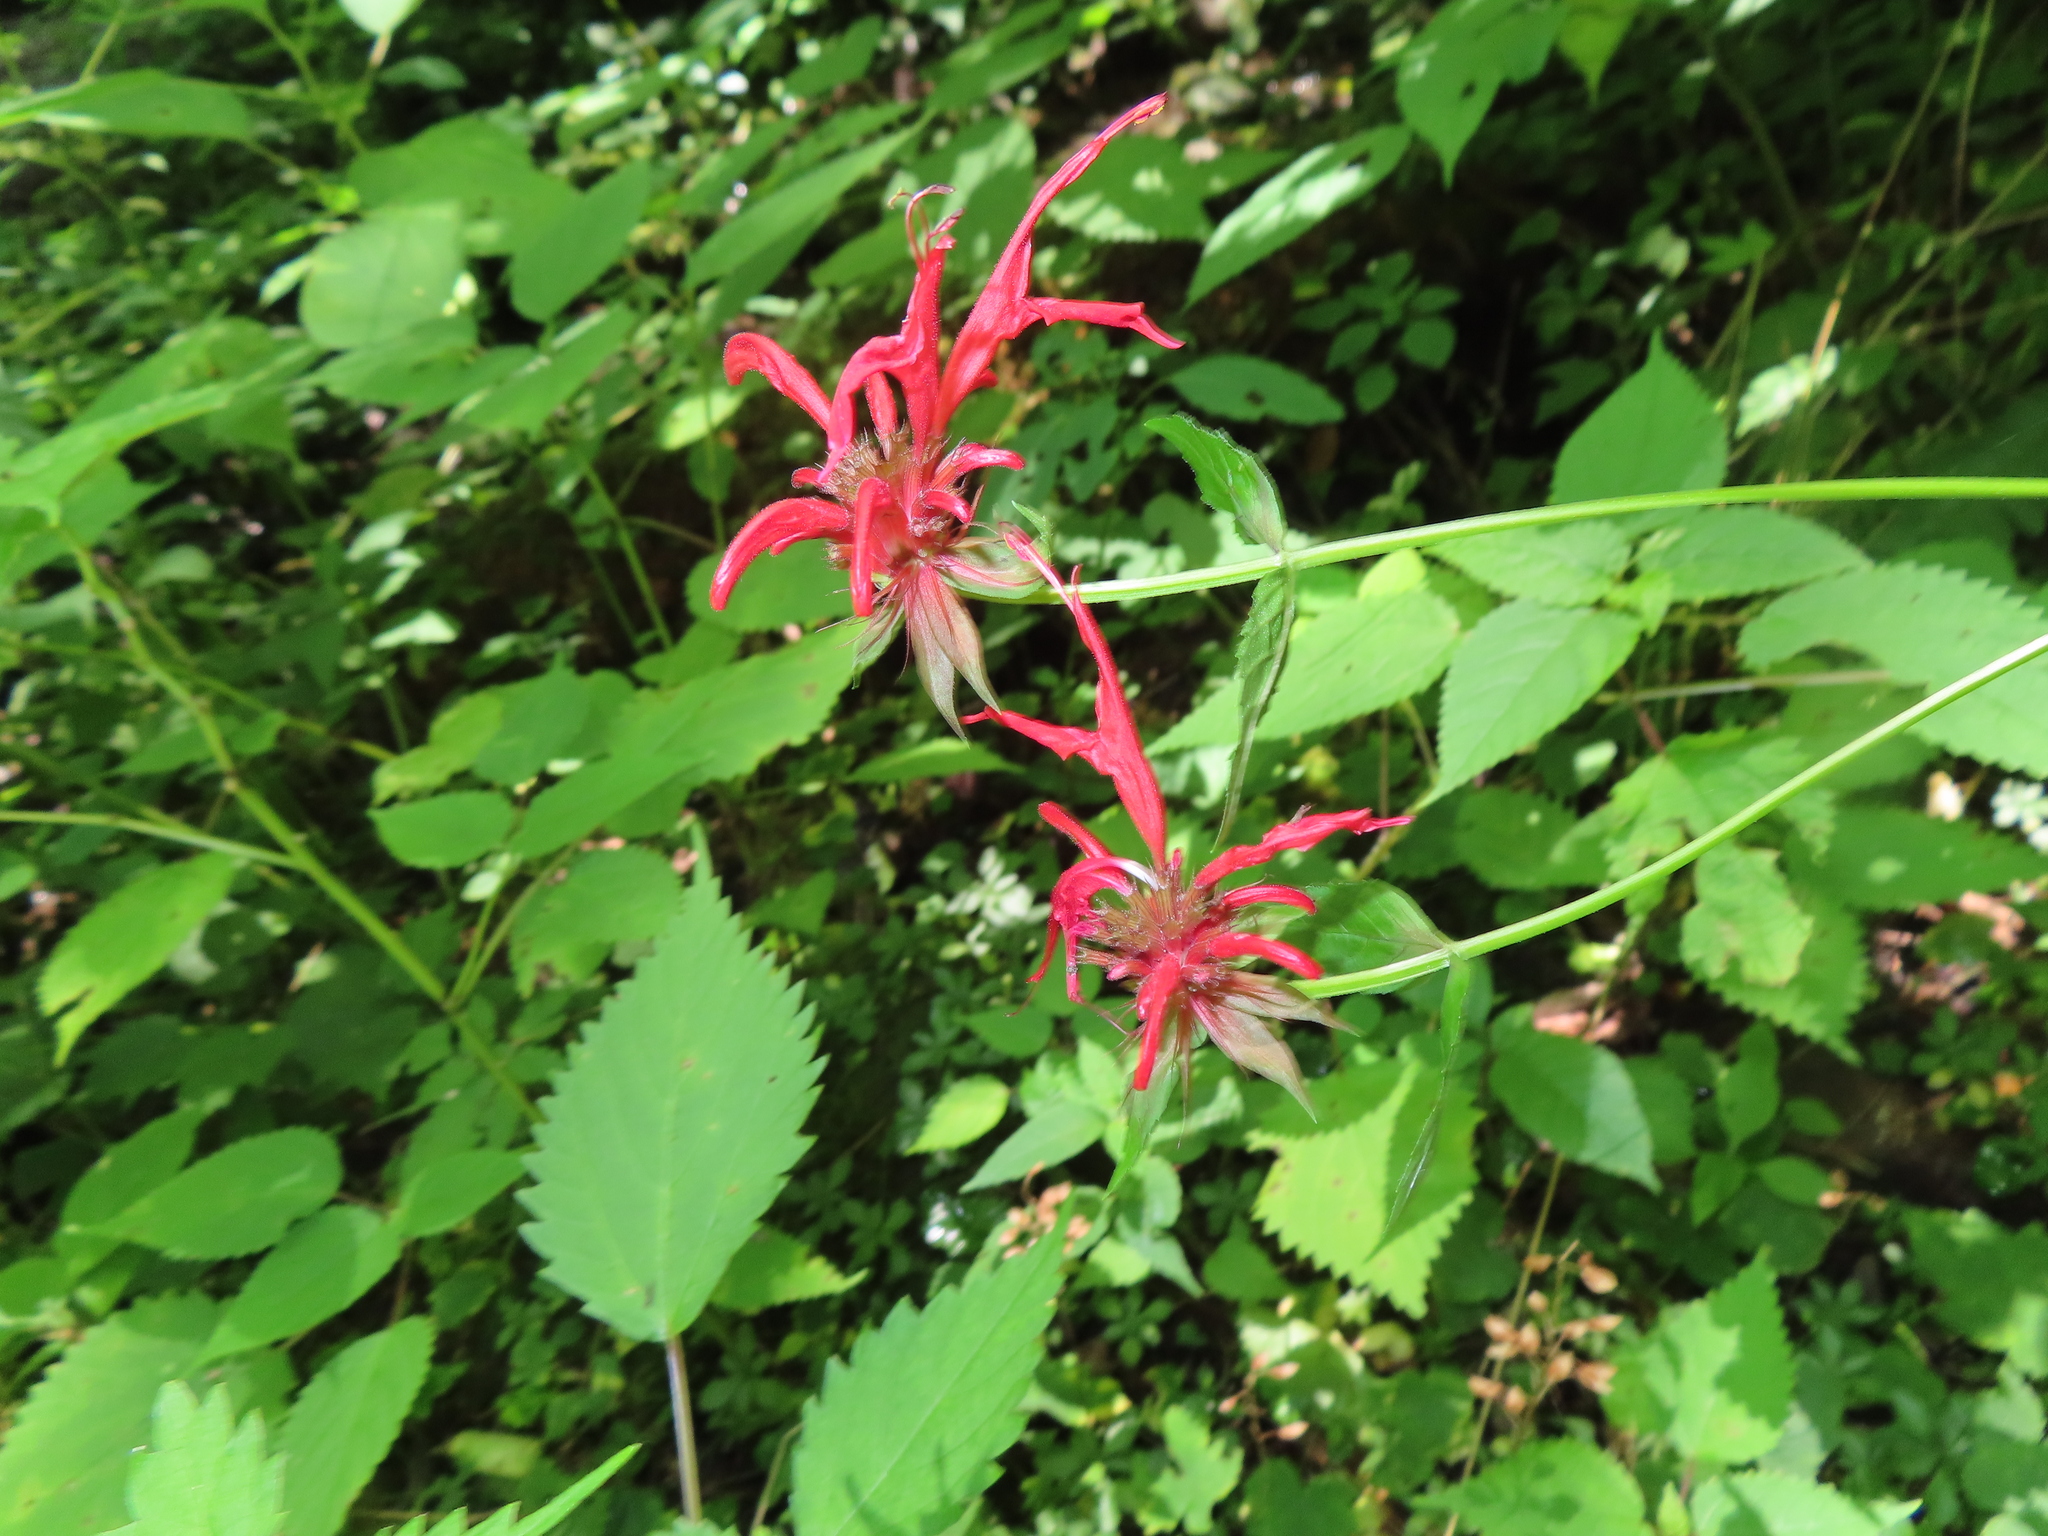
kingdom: Plantae
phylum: Tracheophyta
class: Magnoliopsida
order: Lamiales
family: Lamiaceae
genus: Monarda
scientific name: Monarda didyma
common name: Beebalm
